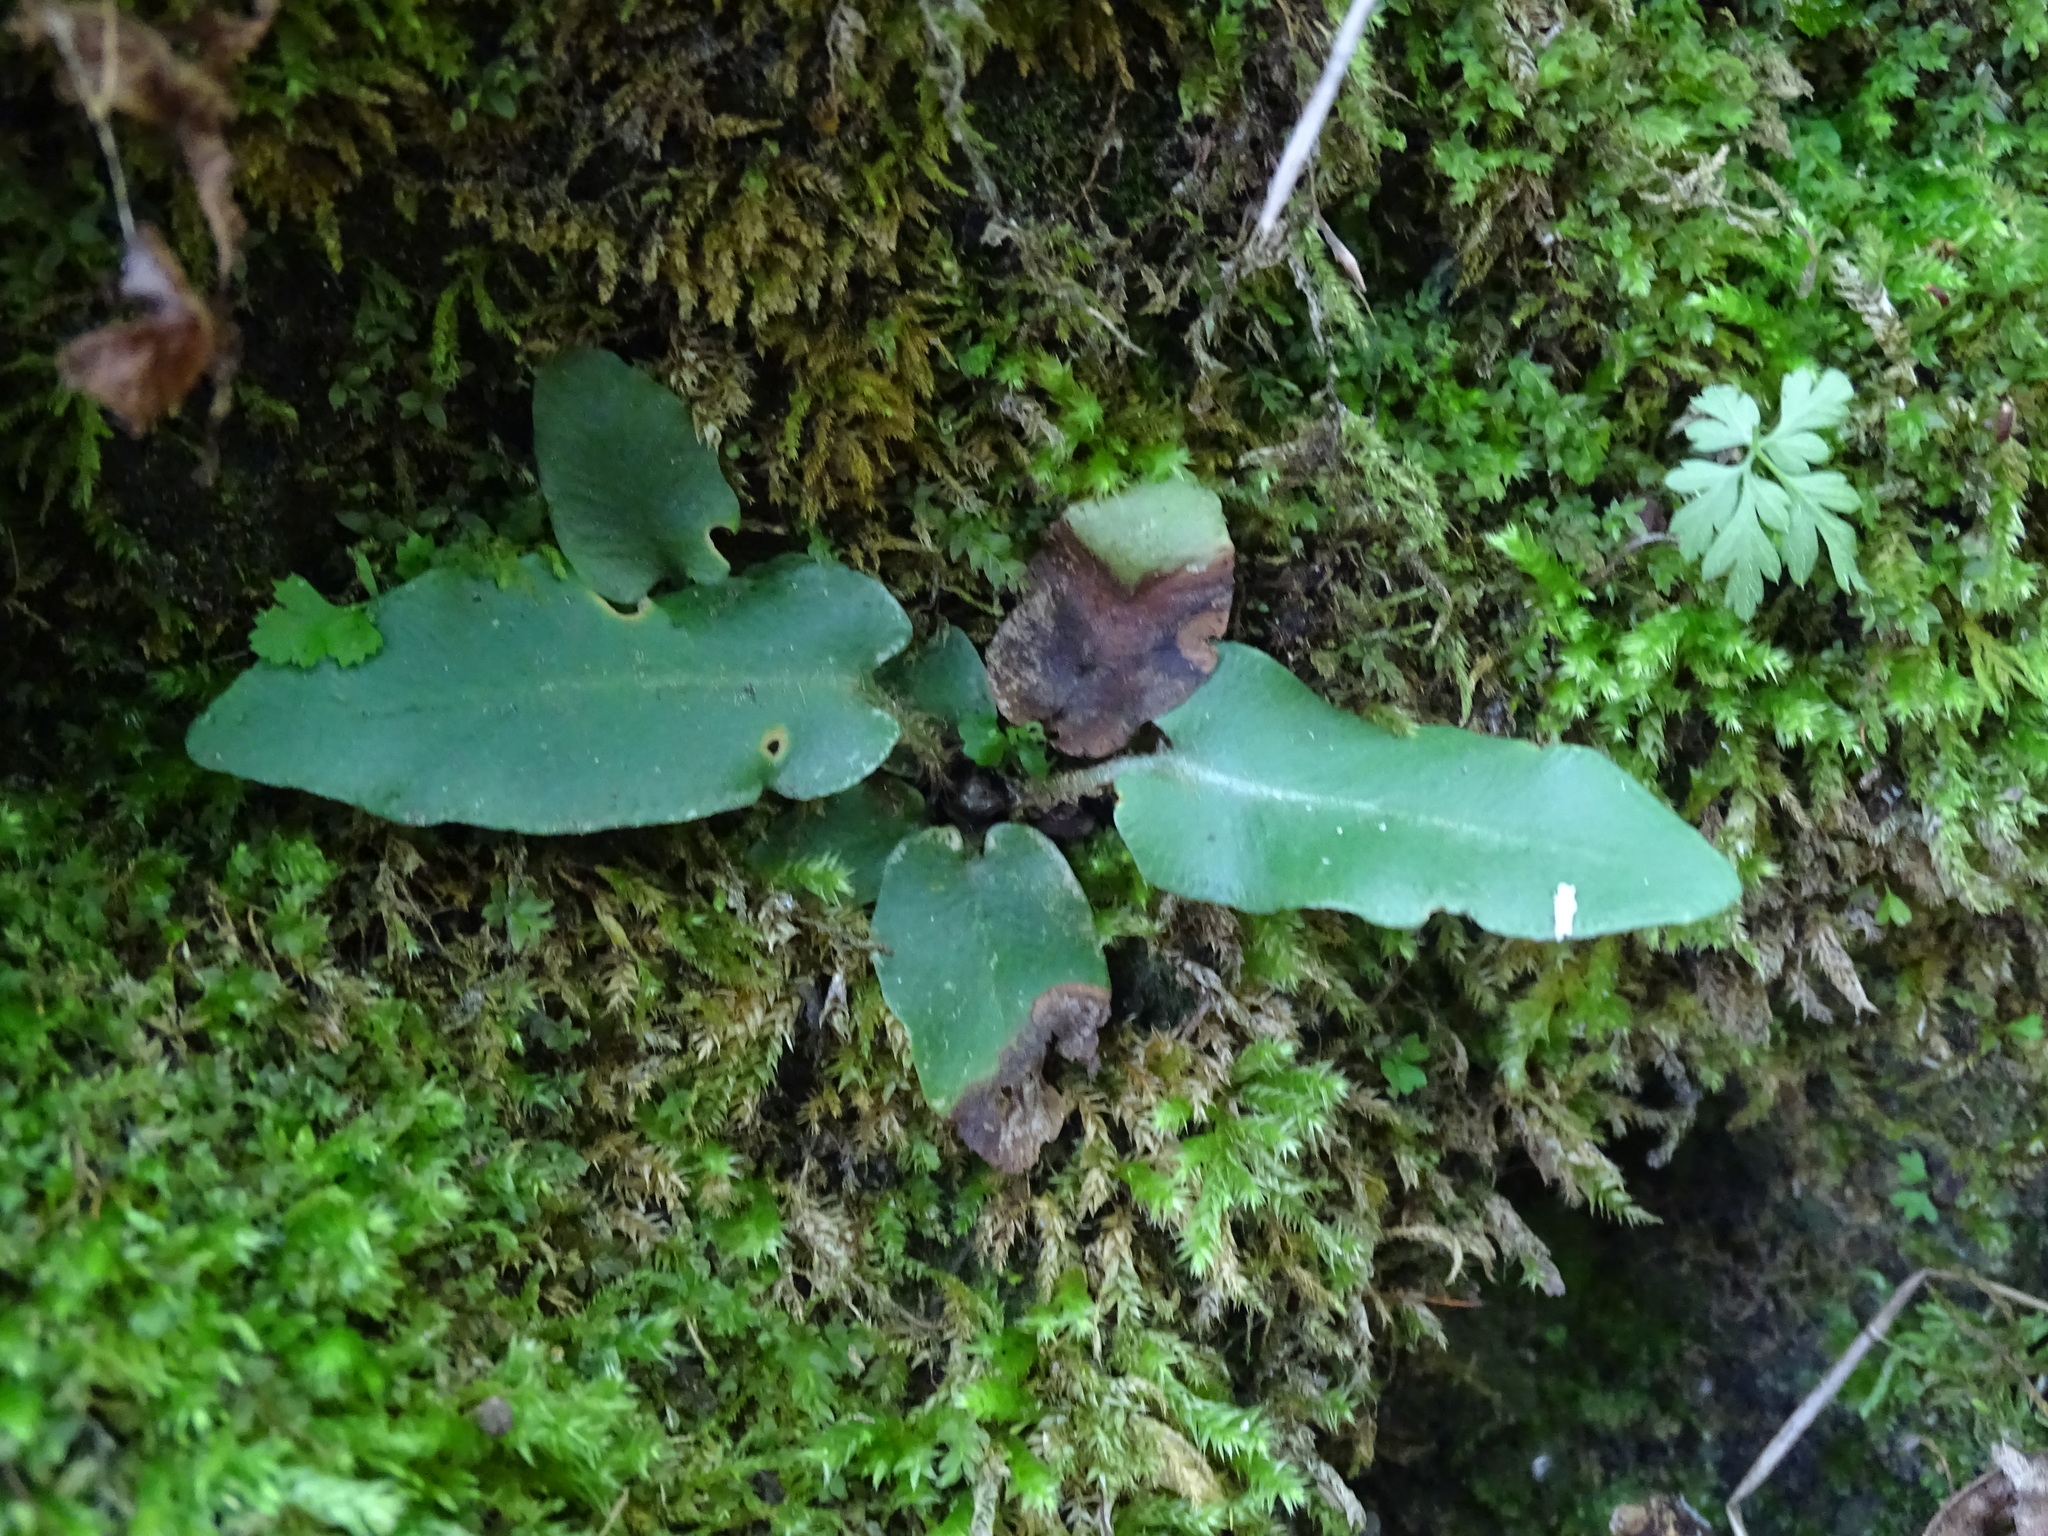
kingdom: Plantae
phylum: Tracheophyta
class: Polypodiopsida
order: Polypodiales
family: Aspleniaceae
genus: Asplenium
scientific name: Asplenium scolopendrium
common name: Hart's-tongue fern
